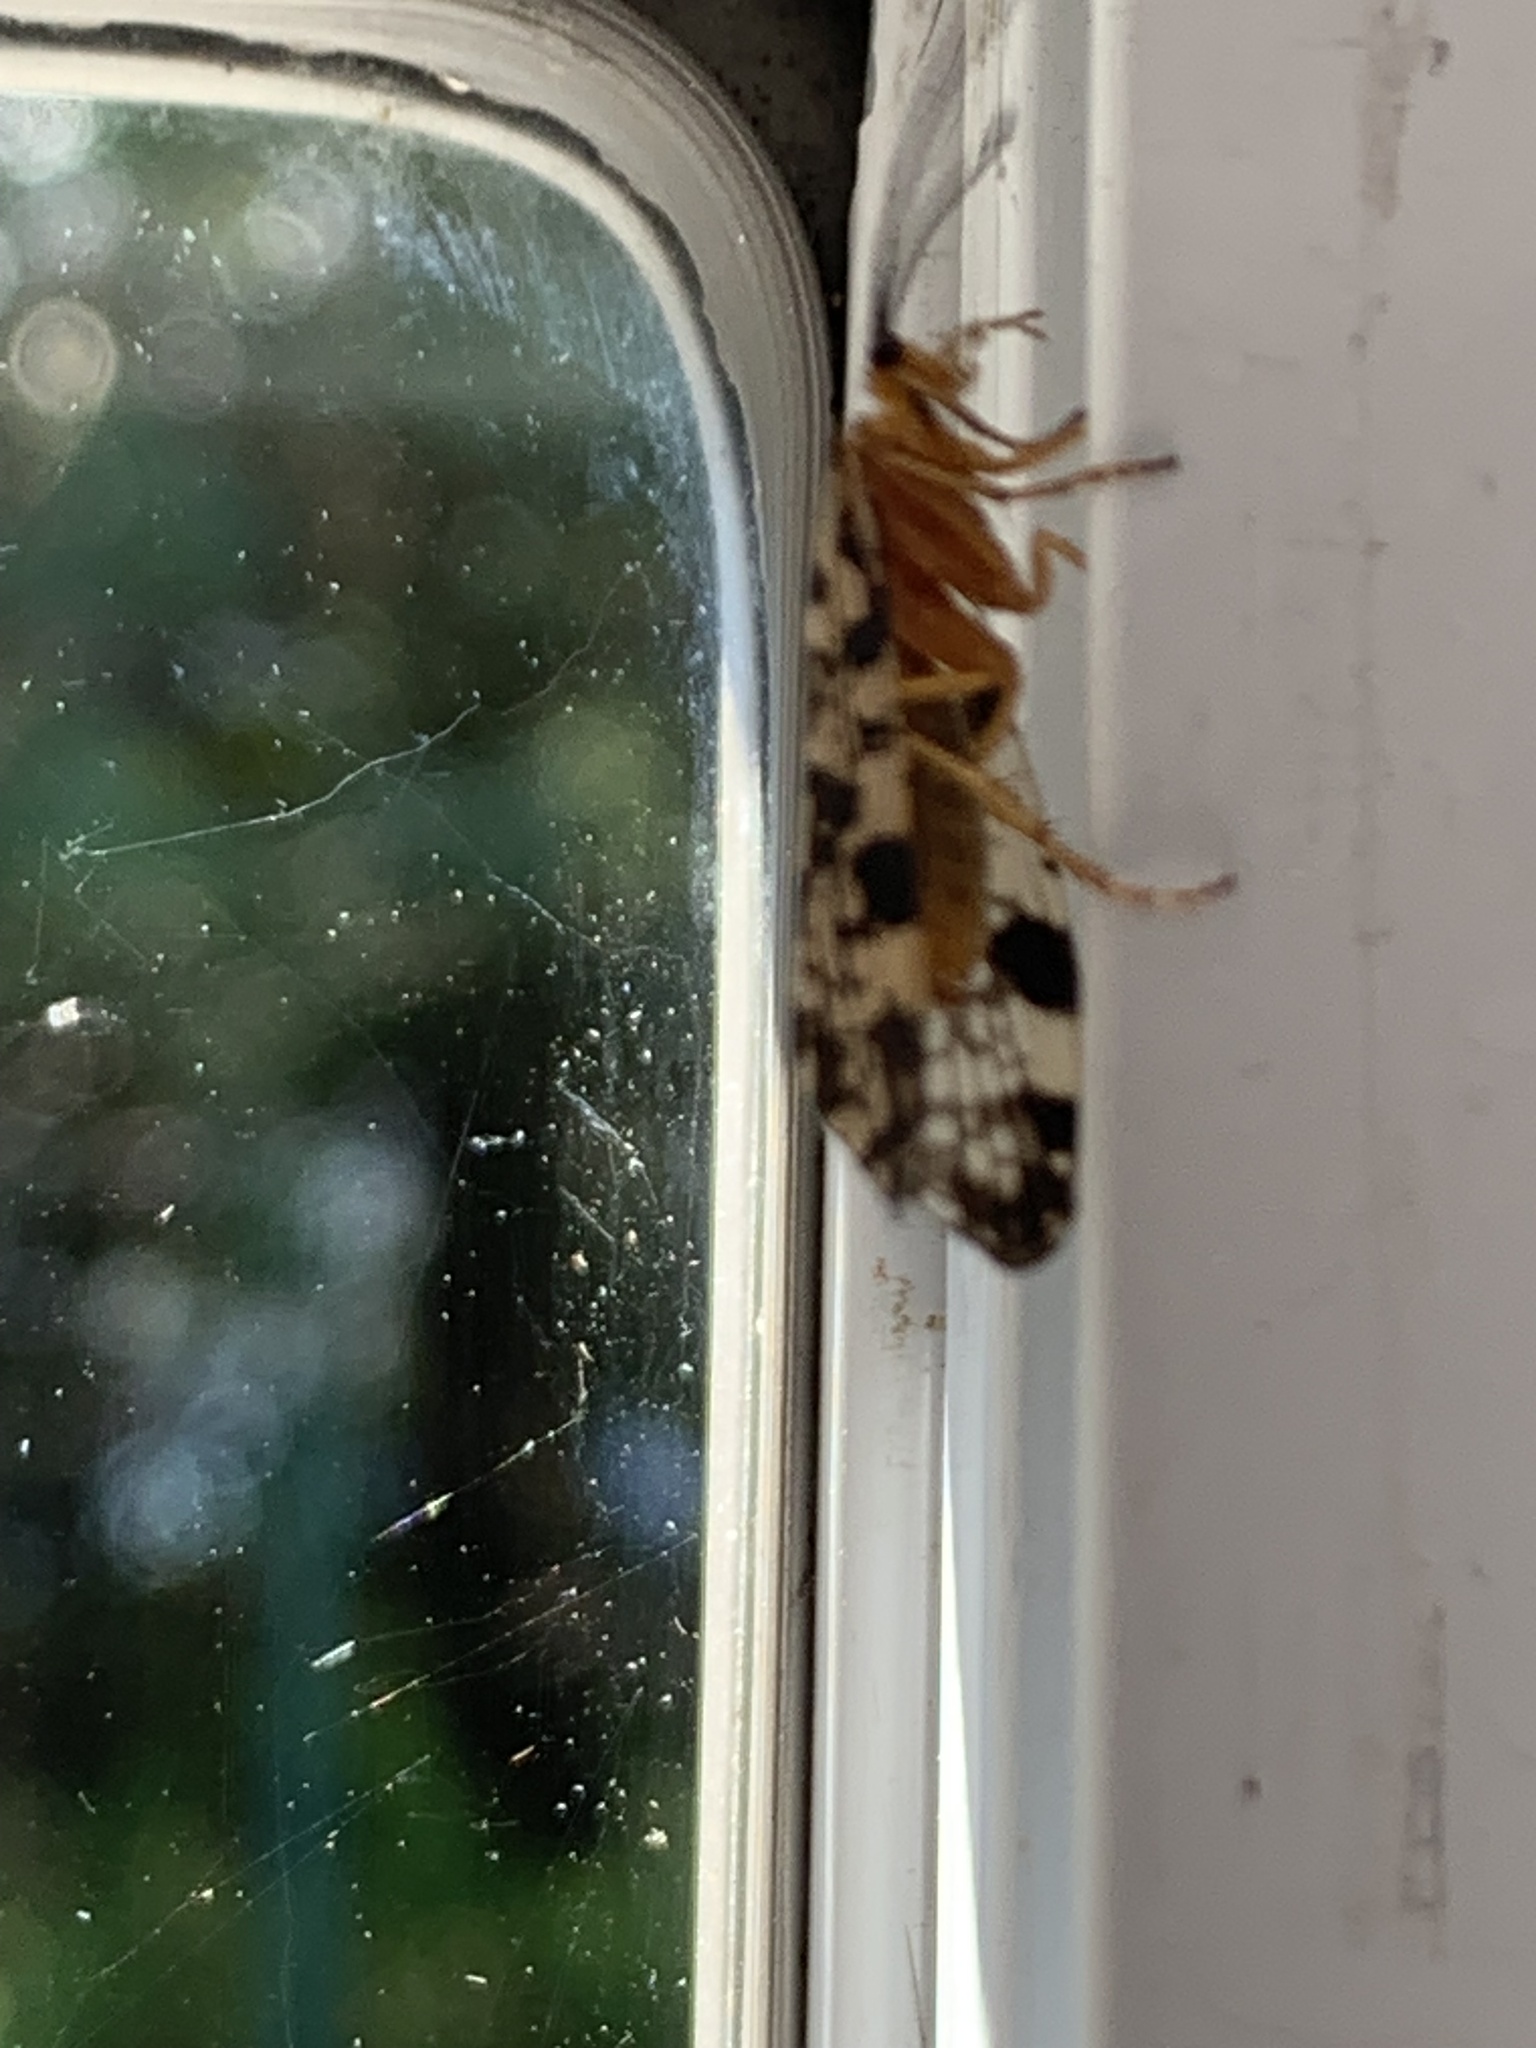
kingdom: Animalia
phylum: Arthropoda
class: Insecta
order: Trichoptera
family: Phryganeidae
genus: Banksiola
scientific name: Banksiola dossuaria
